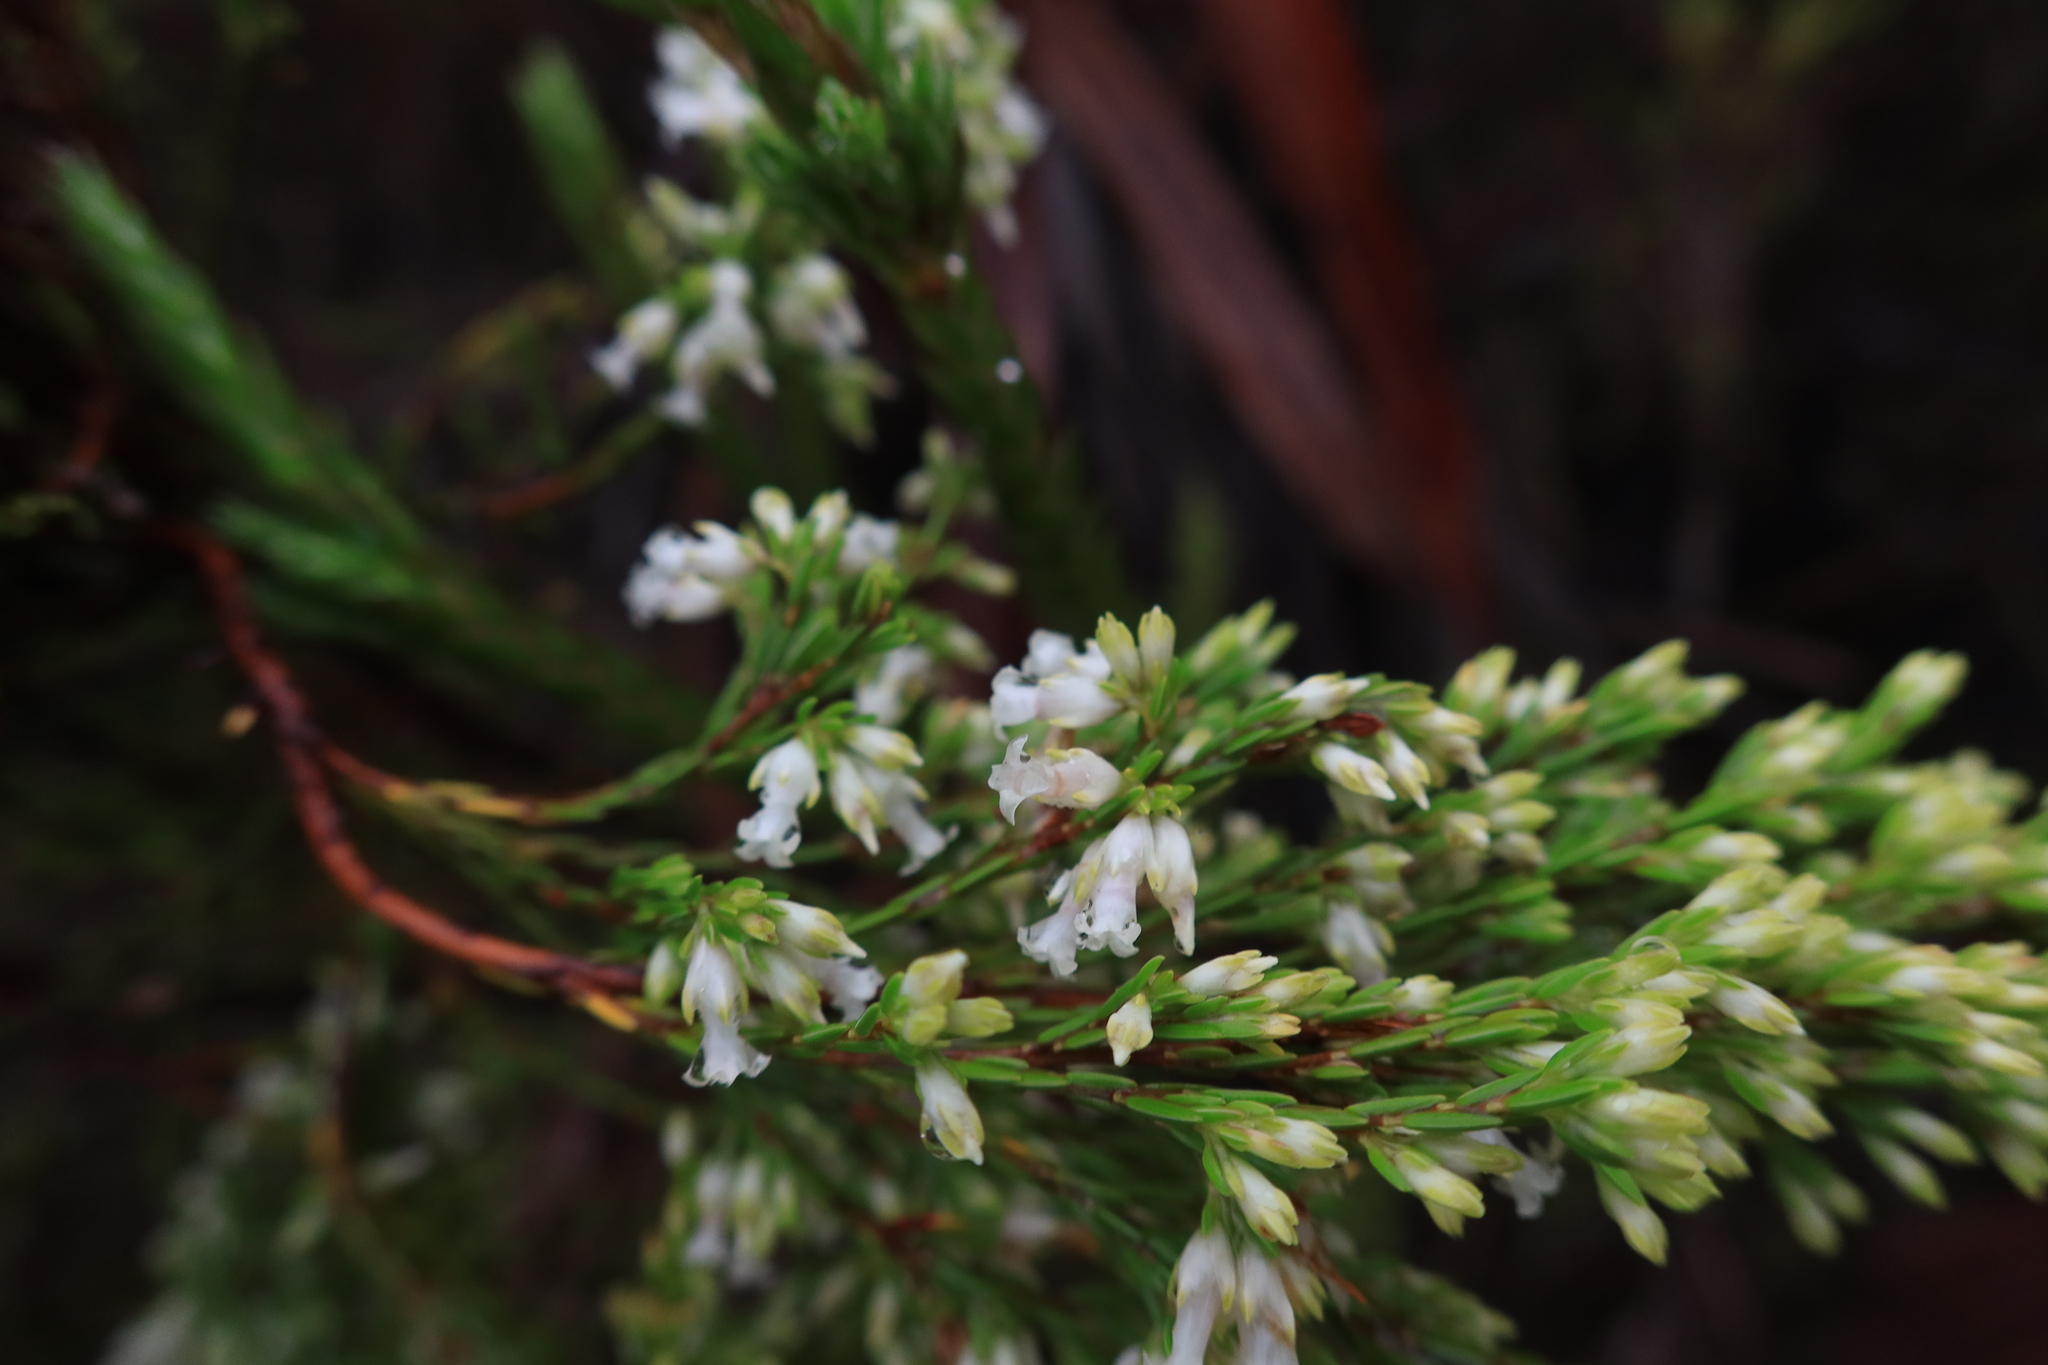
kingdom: Plantae
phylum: Tracheophyta
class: Magnoliopsida
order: Ericales
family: Ericaceae
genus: Erica
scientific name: Erica lutea
